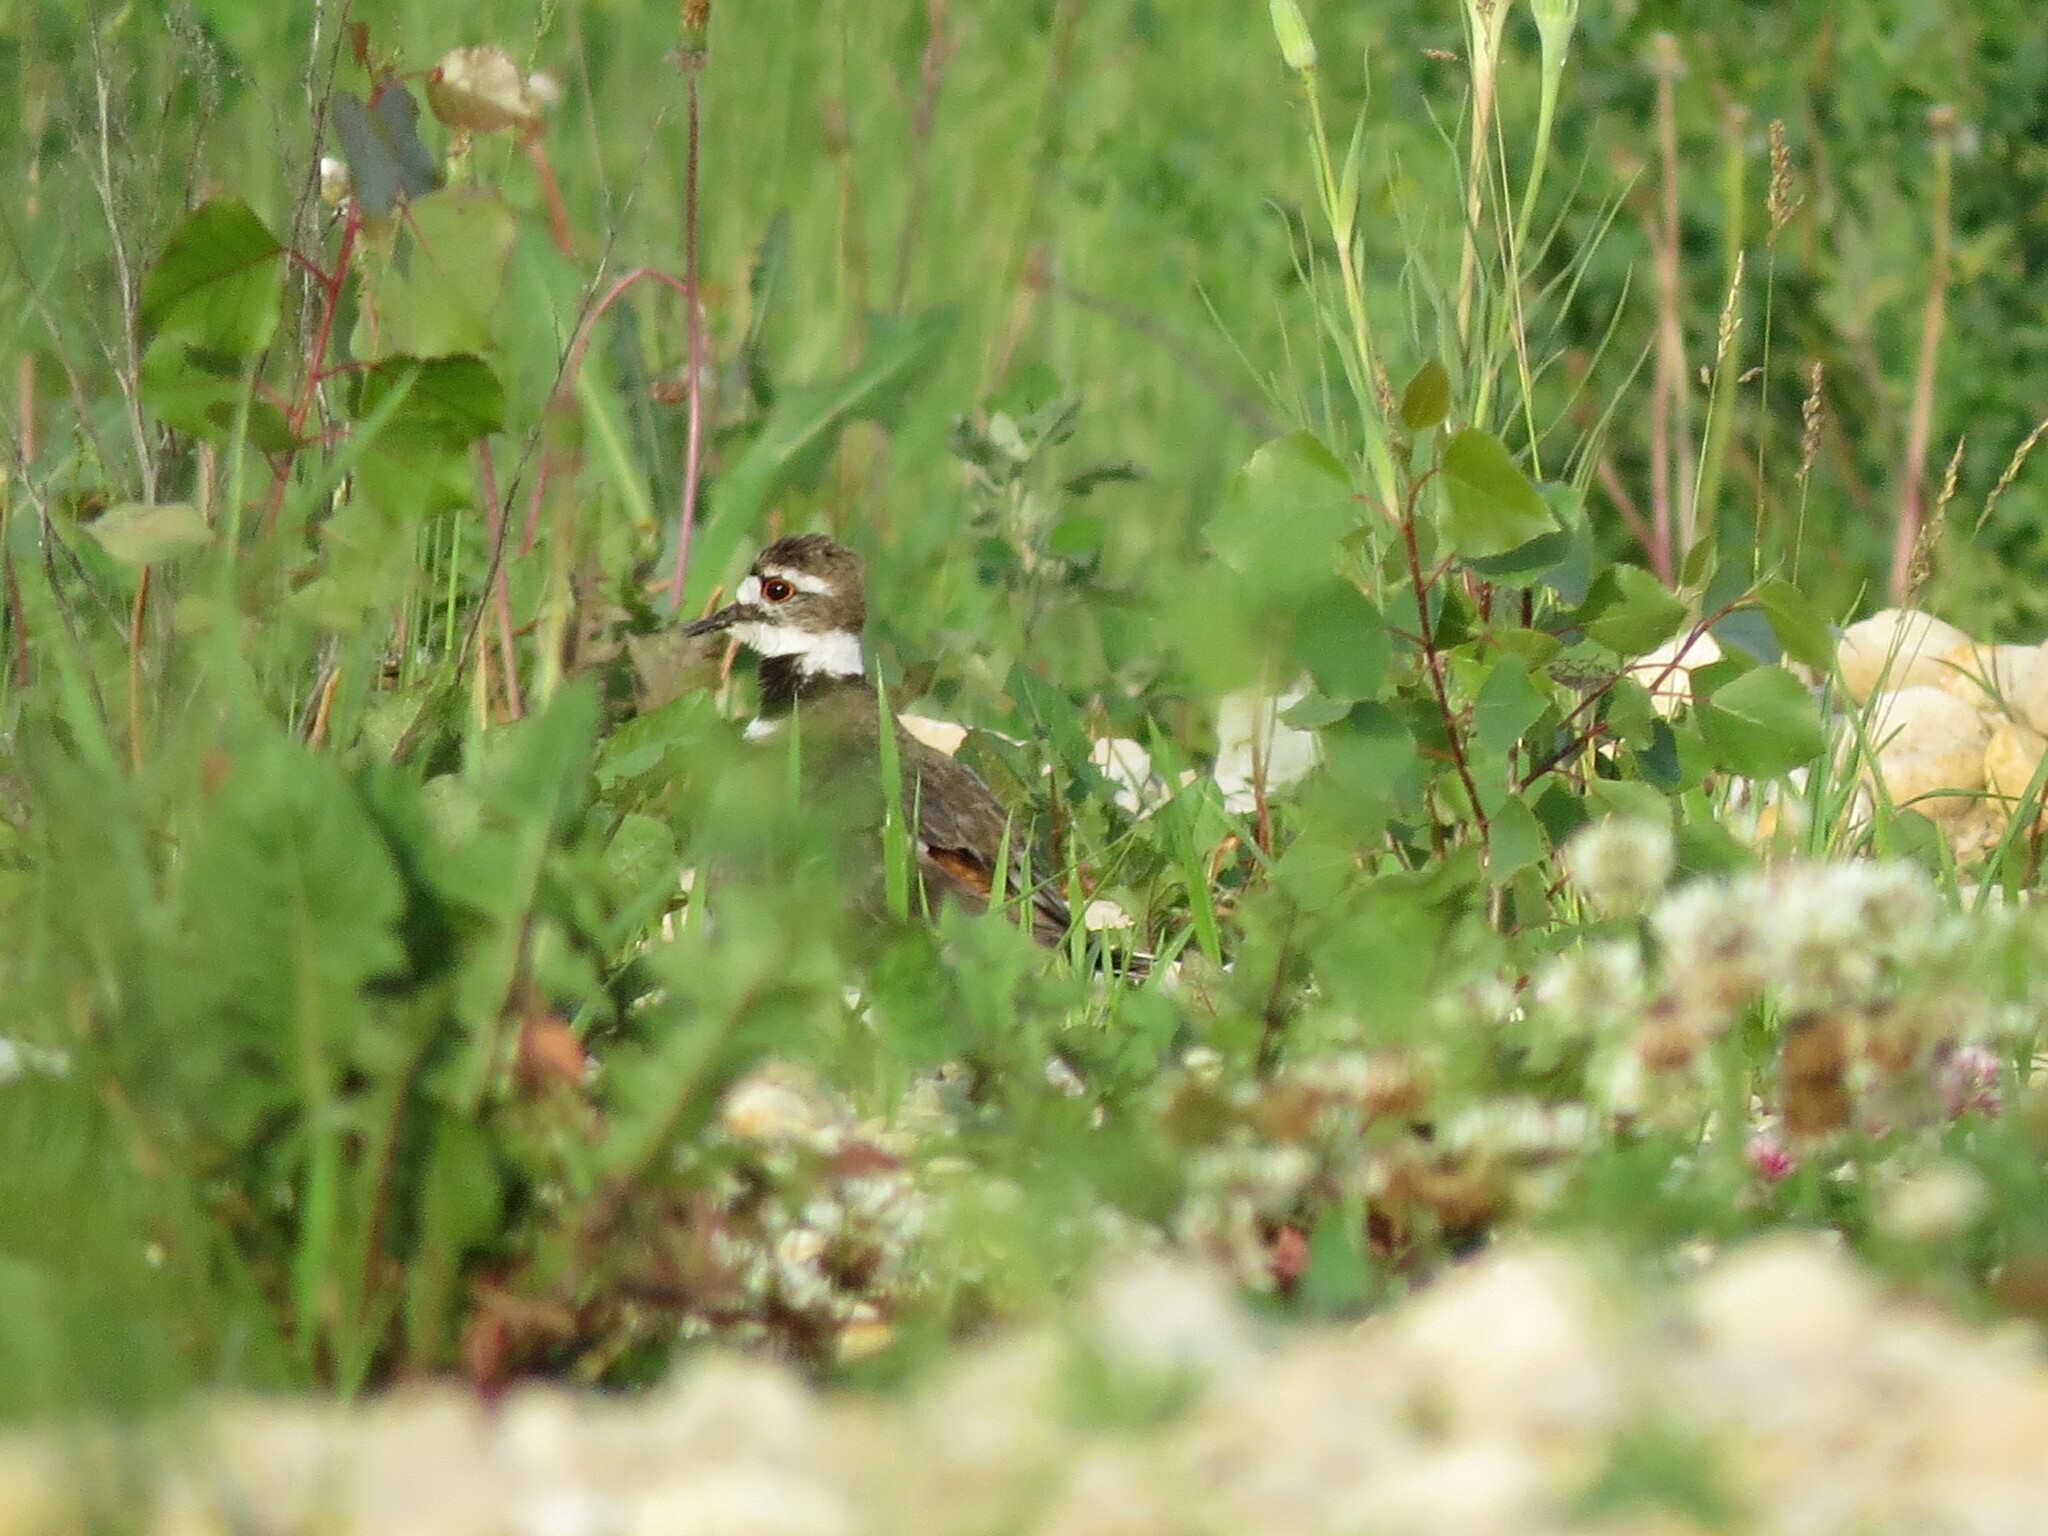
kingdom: Animalia
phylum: Chordata
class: Aves
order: Charadriiformes
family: Charadriidae
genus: Charadrius
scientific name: Charadrius vociferus
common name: Killdeer
